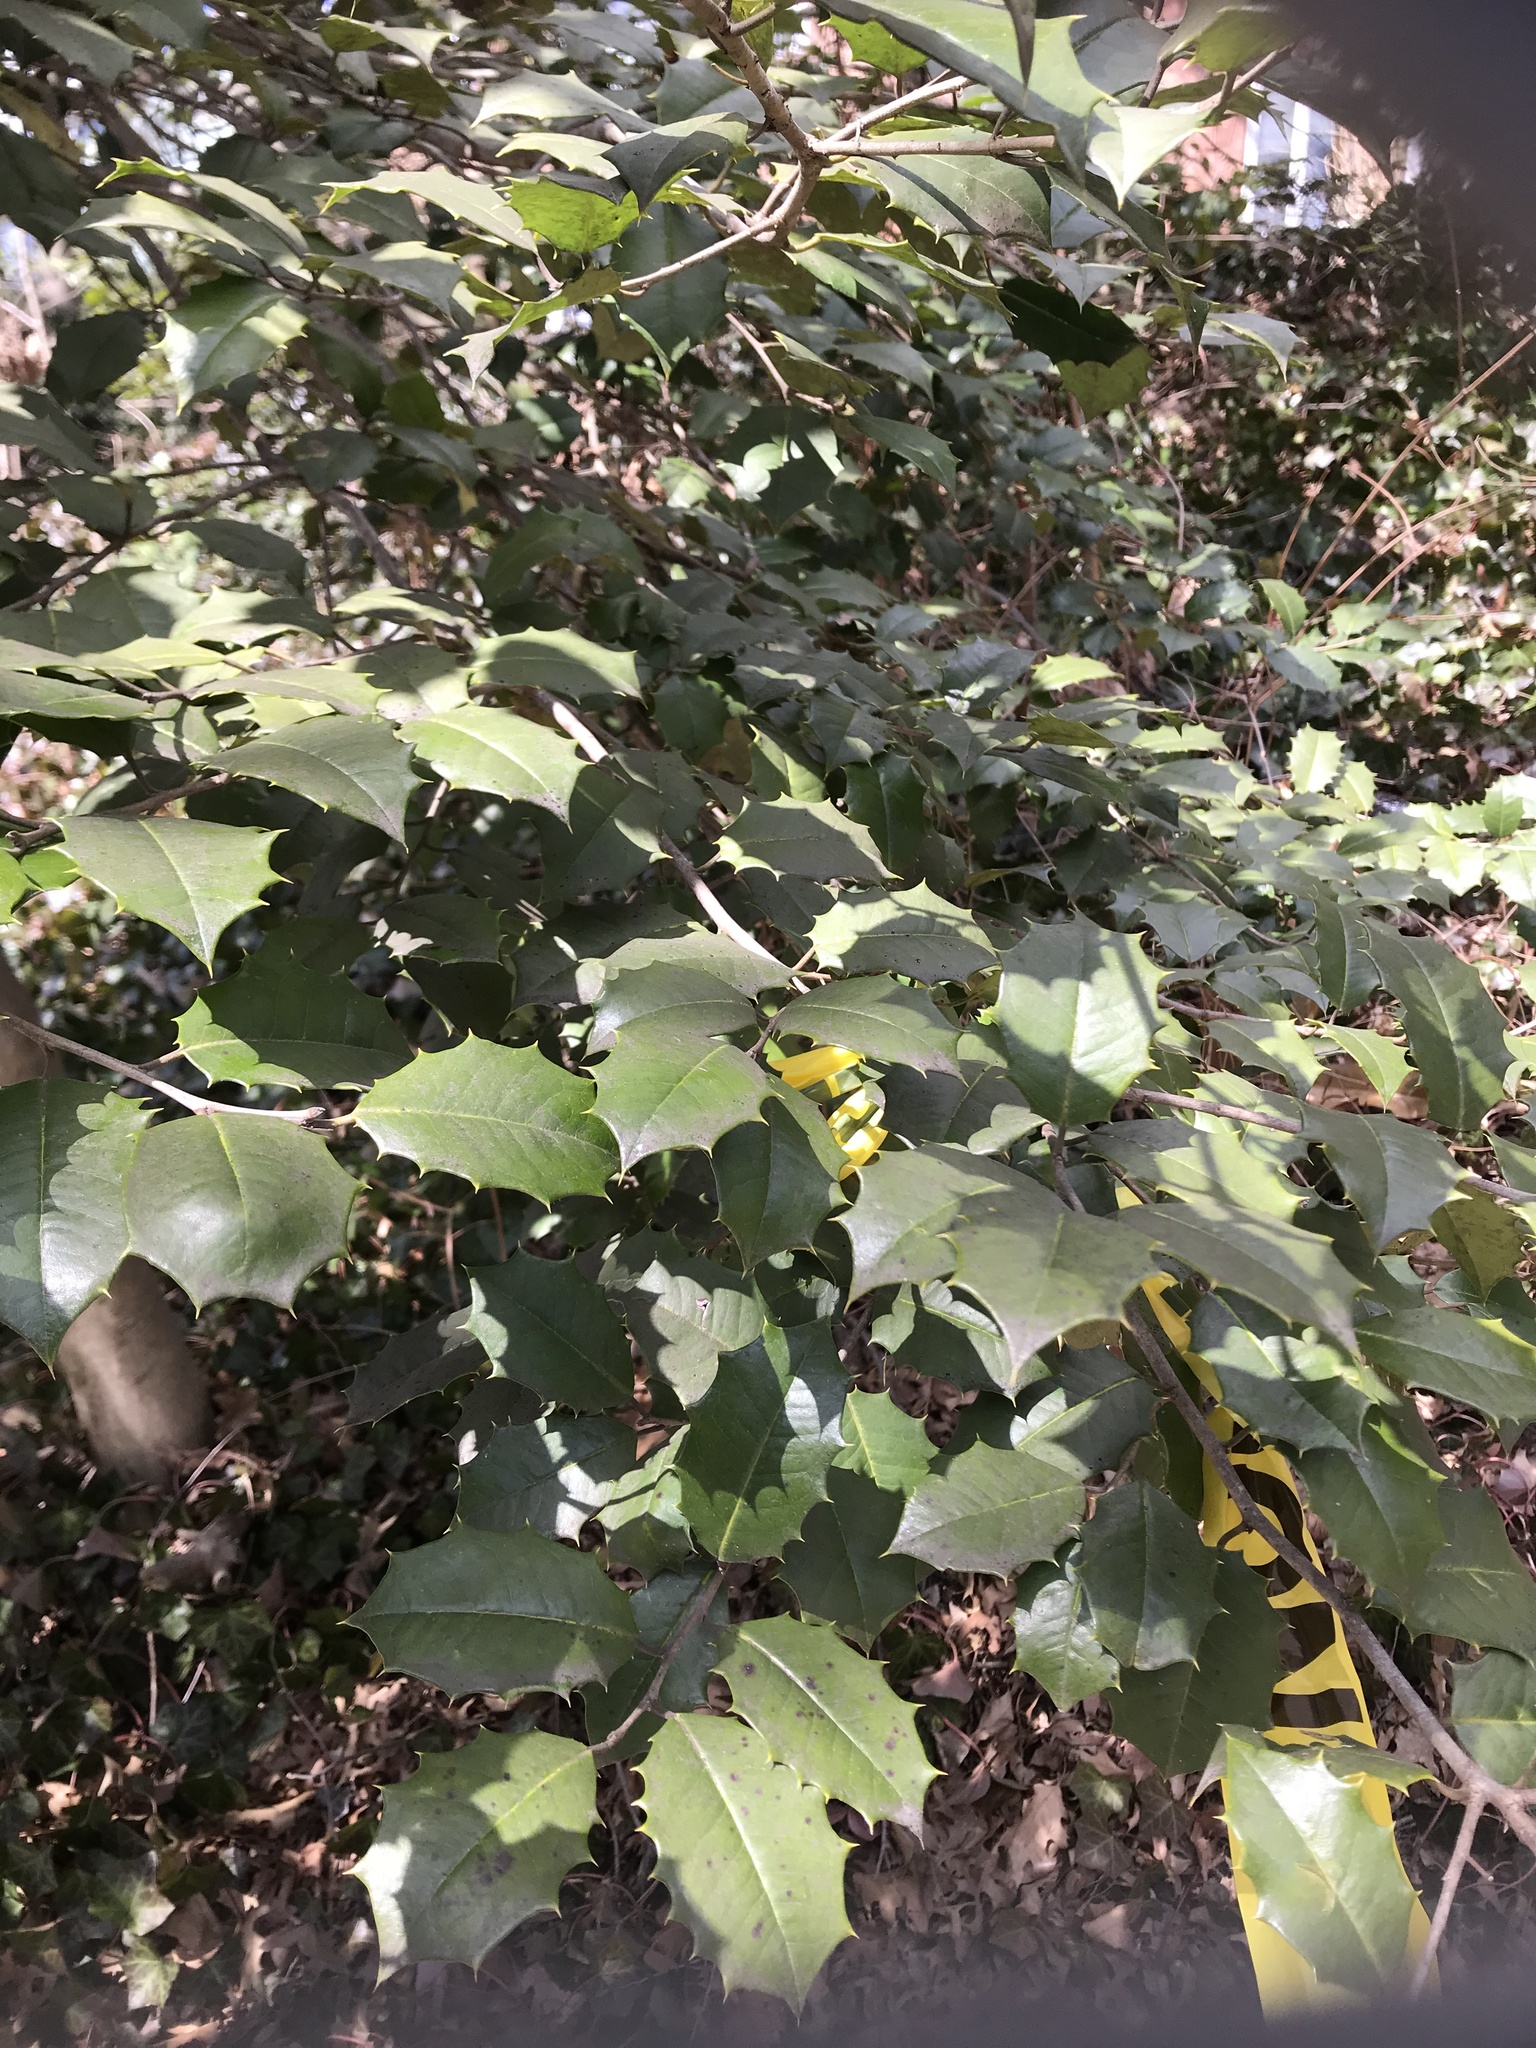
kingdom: Plantae
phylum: Tracheophyta
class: Magnoliopsida
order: Aquifoliales
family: Aquifoliaceae
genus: Ilex
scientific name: Ilex opaca
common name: American holly
